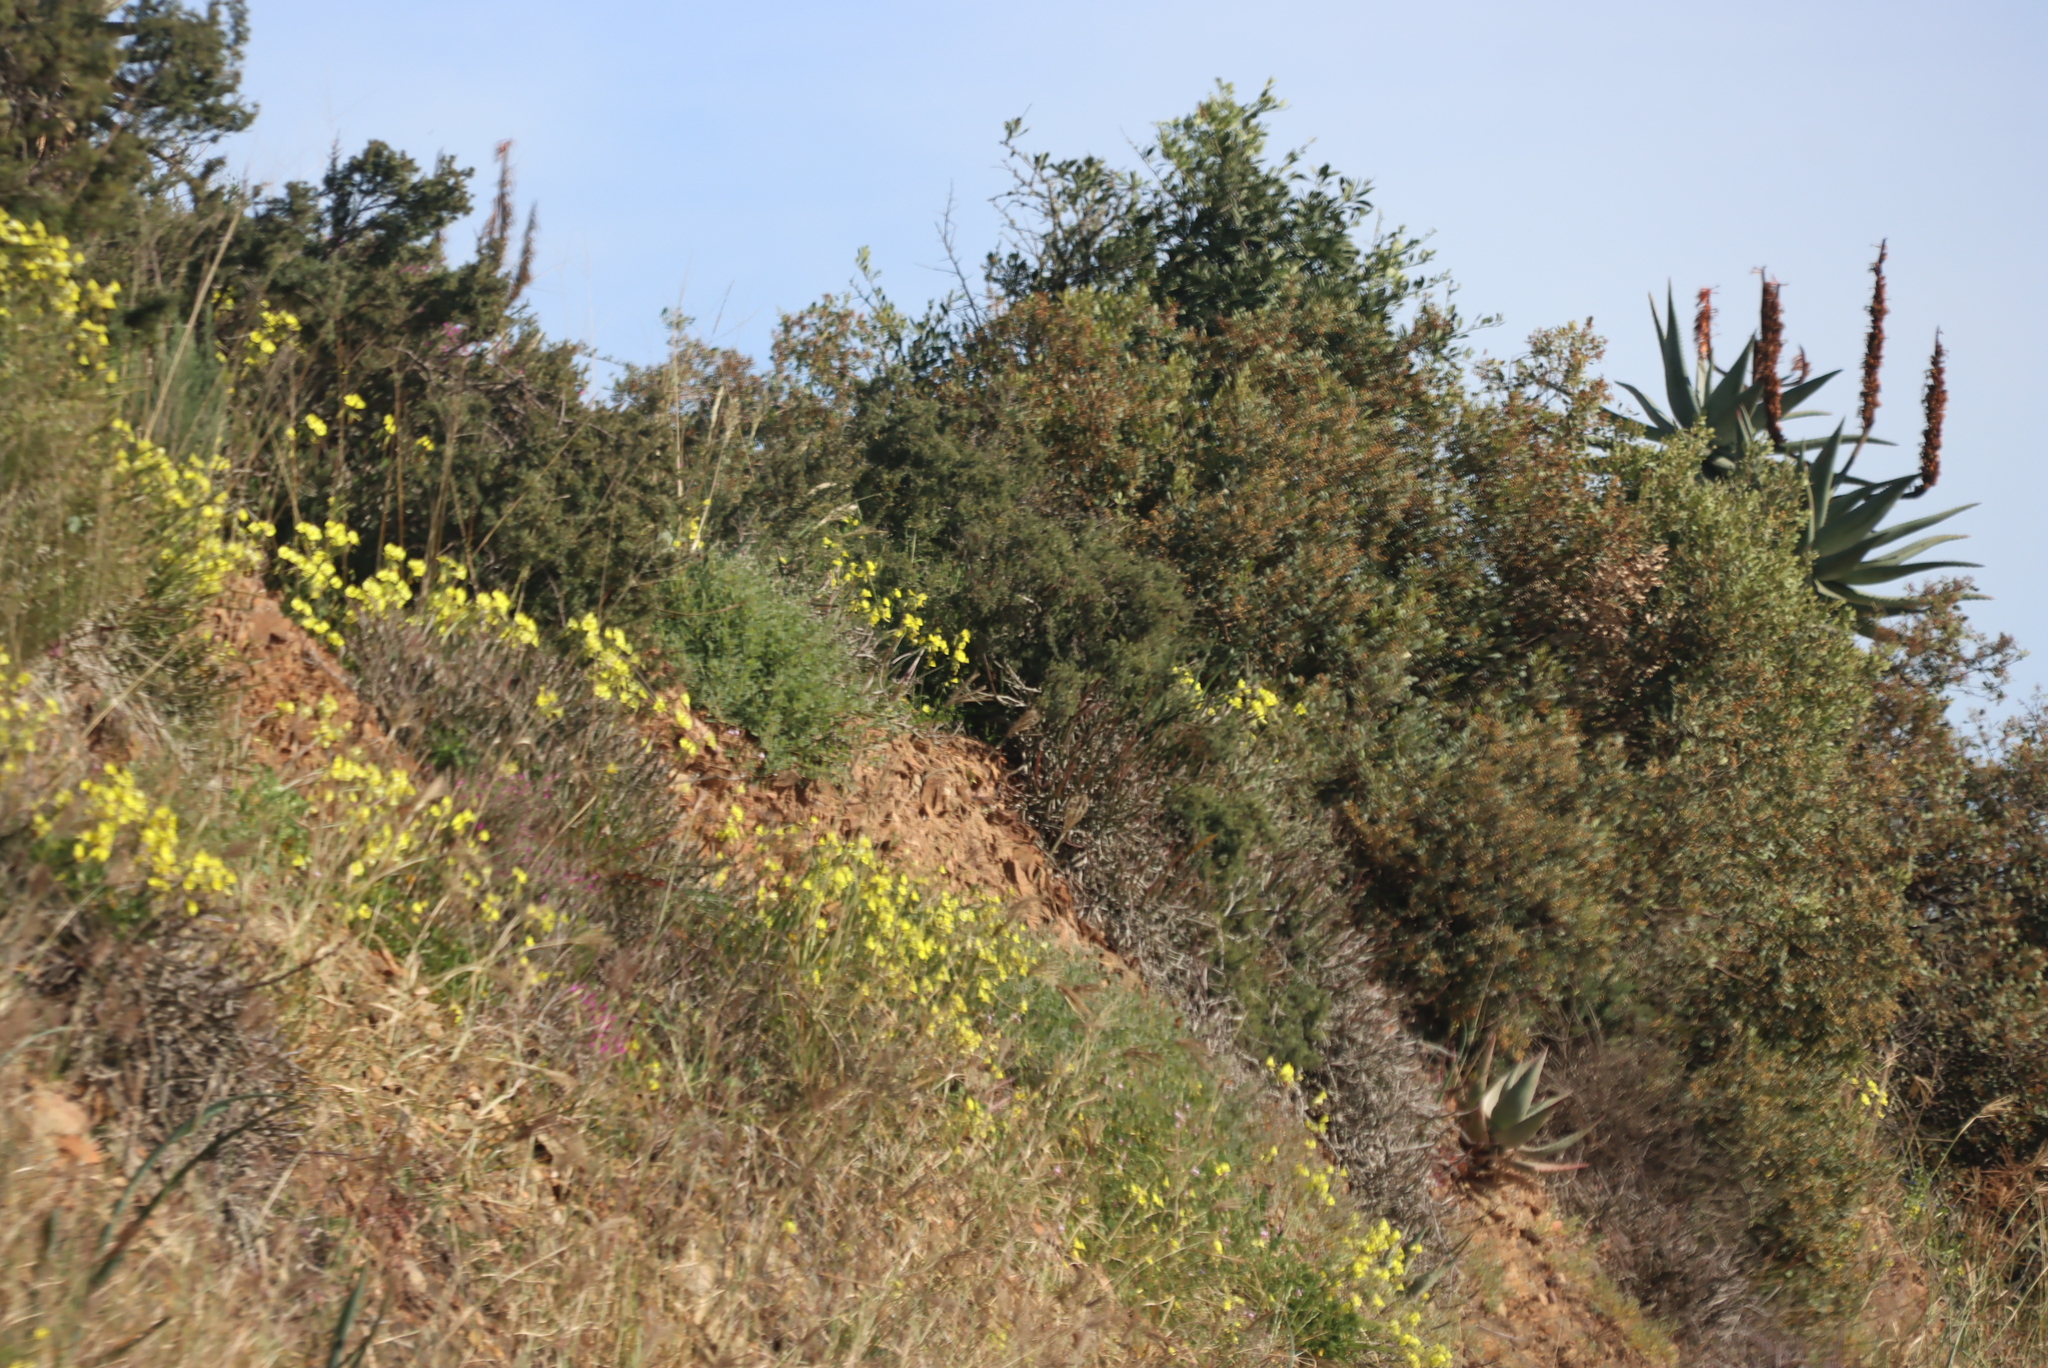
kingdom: Plantae
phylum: Tracheophyta
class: Magnoliopsida
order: Oxalidales
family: Oxalidaceae
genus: Oxalis
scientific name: Oxalis pes-caprae
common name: Bermuda-buttercup
